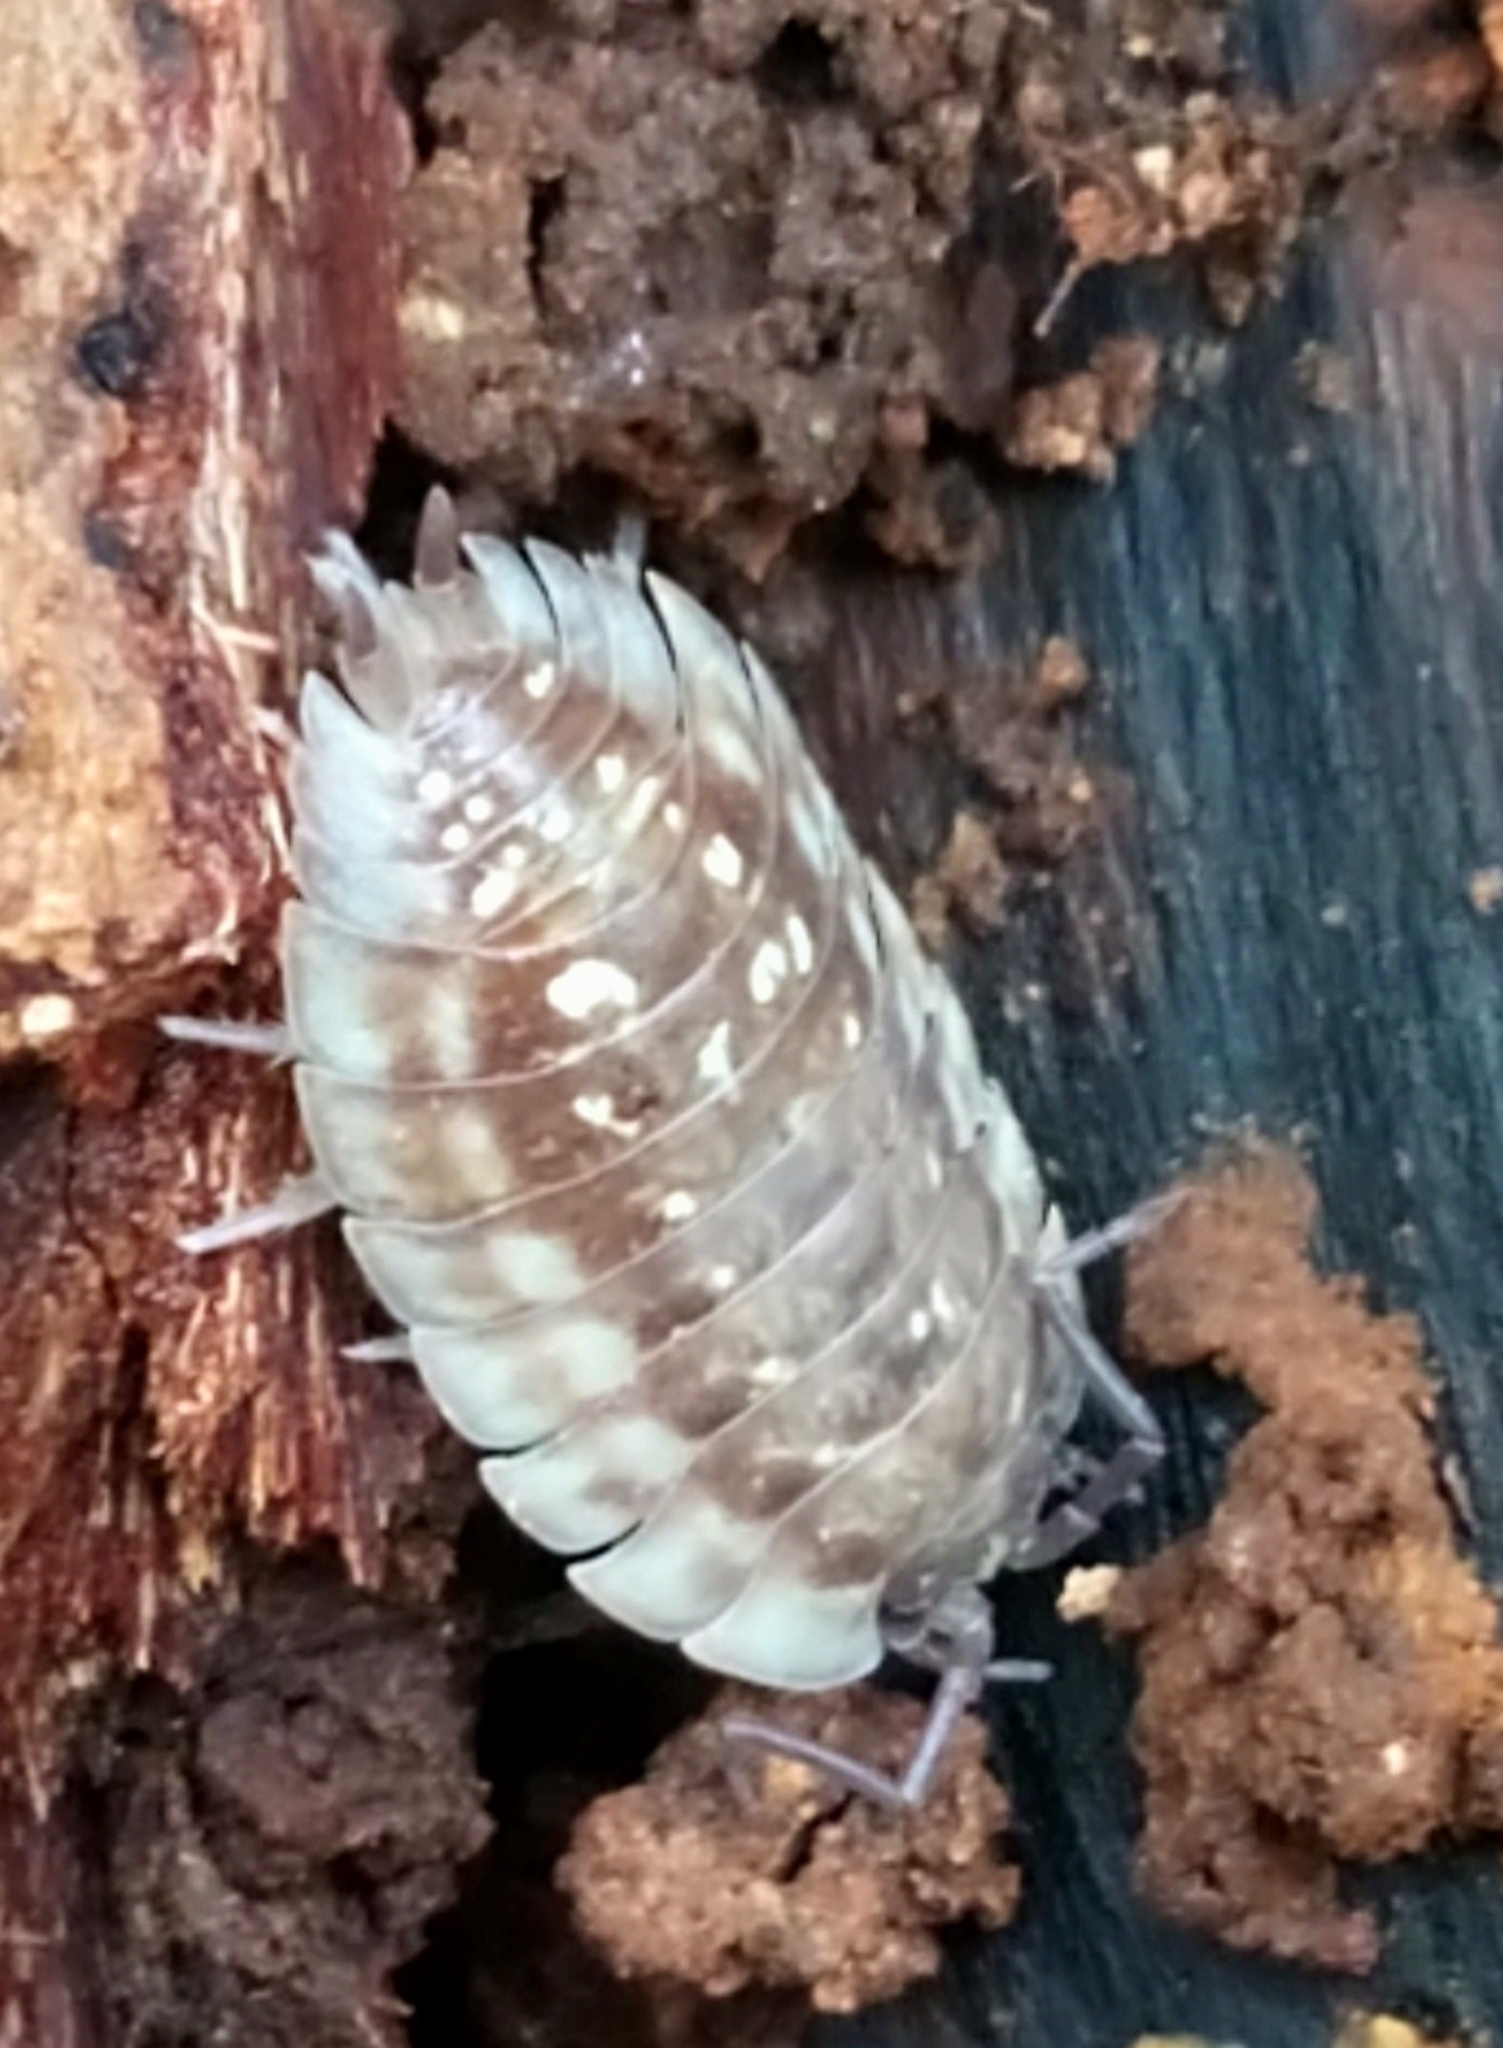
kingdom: Animalia
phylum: Arthropoda
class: Malacostraca
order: Isopoda
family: Oniscidae
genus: Oniscus
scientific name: Oniscus asellus
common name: Common shiny woodlouse
